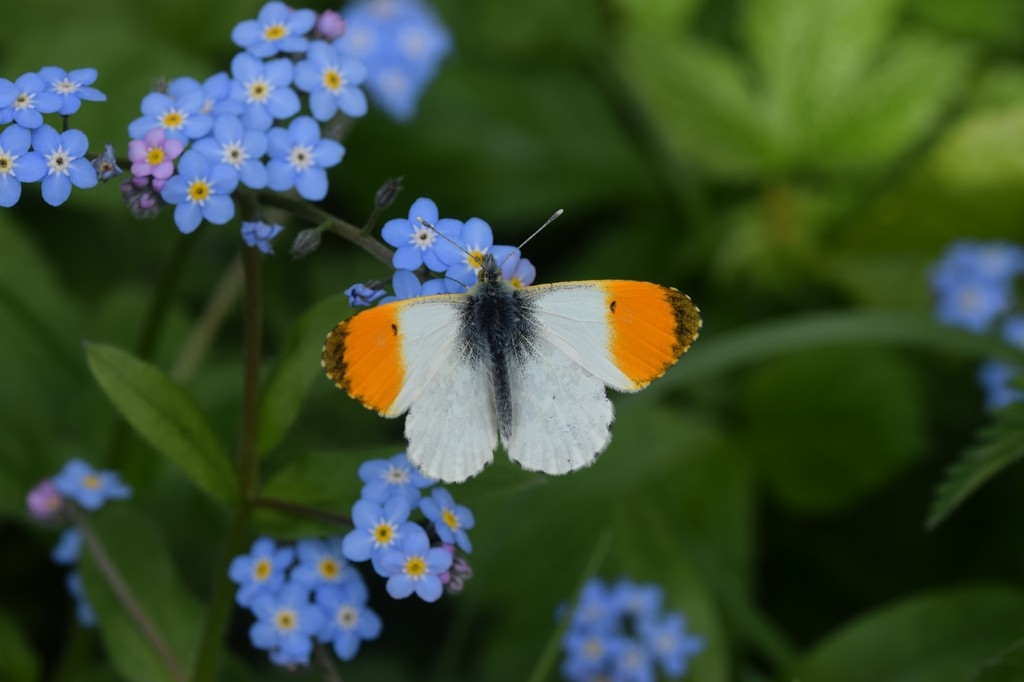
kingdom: Animalia
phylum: Arthropoda
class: Insecta
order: Lepidoptera
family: Pieridae
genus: Anthocharis
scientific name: Anthocharis cardamines
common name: Orange-tip
